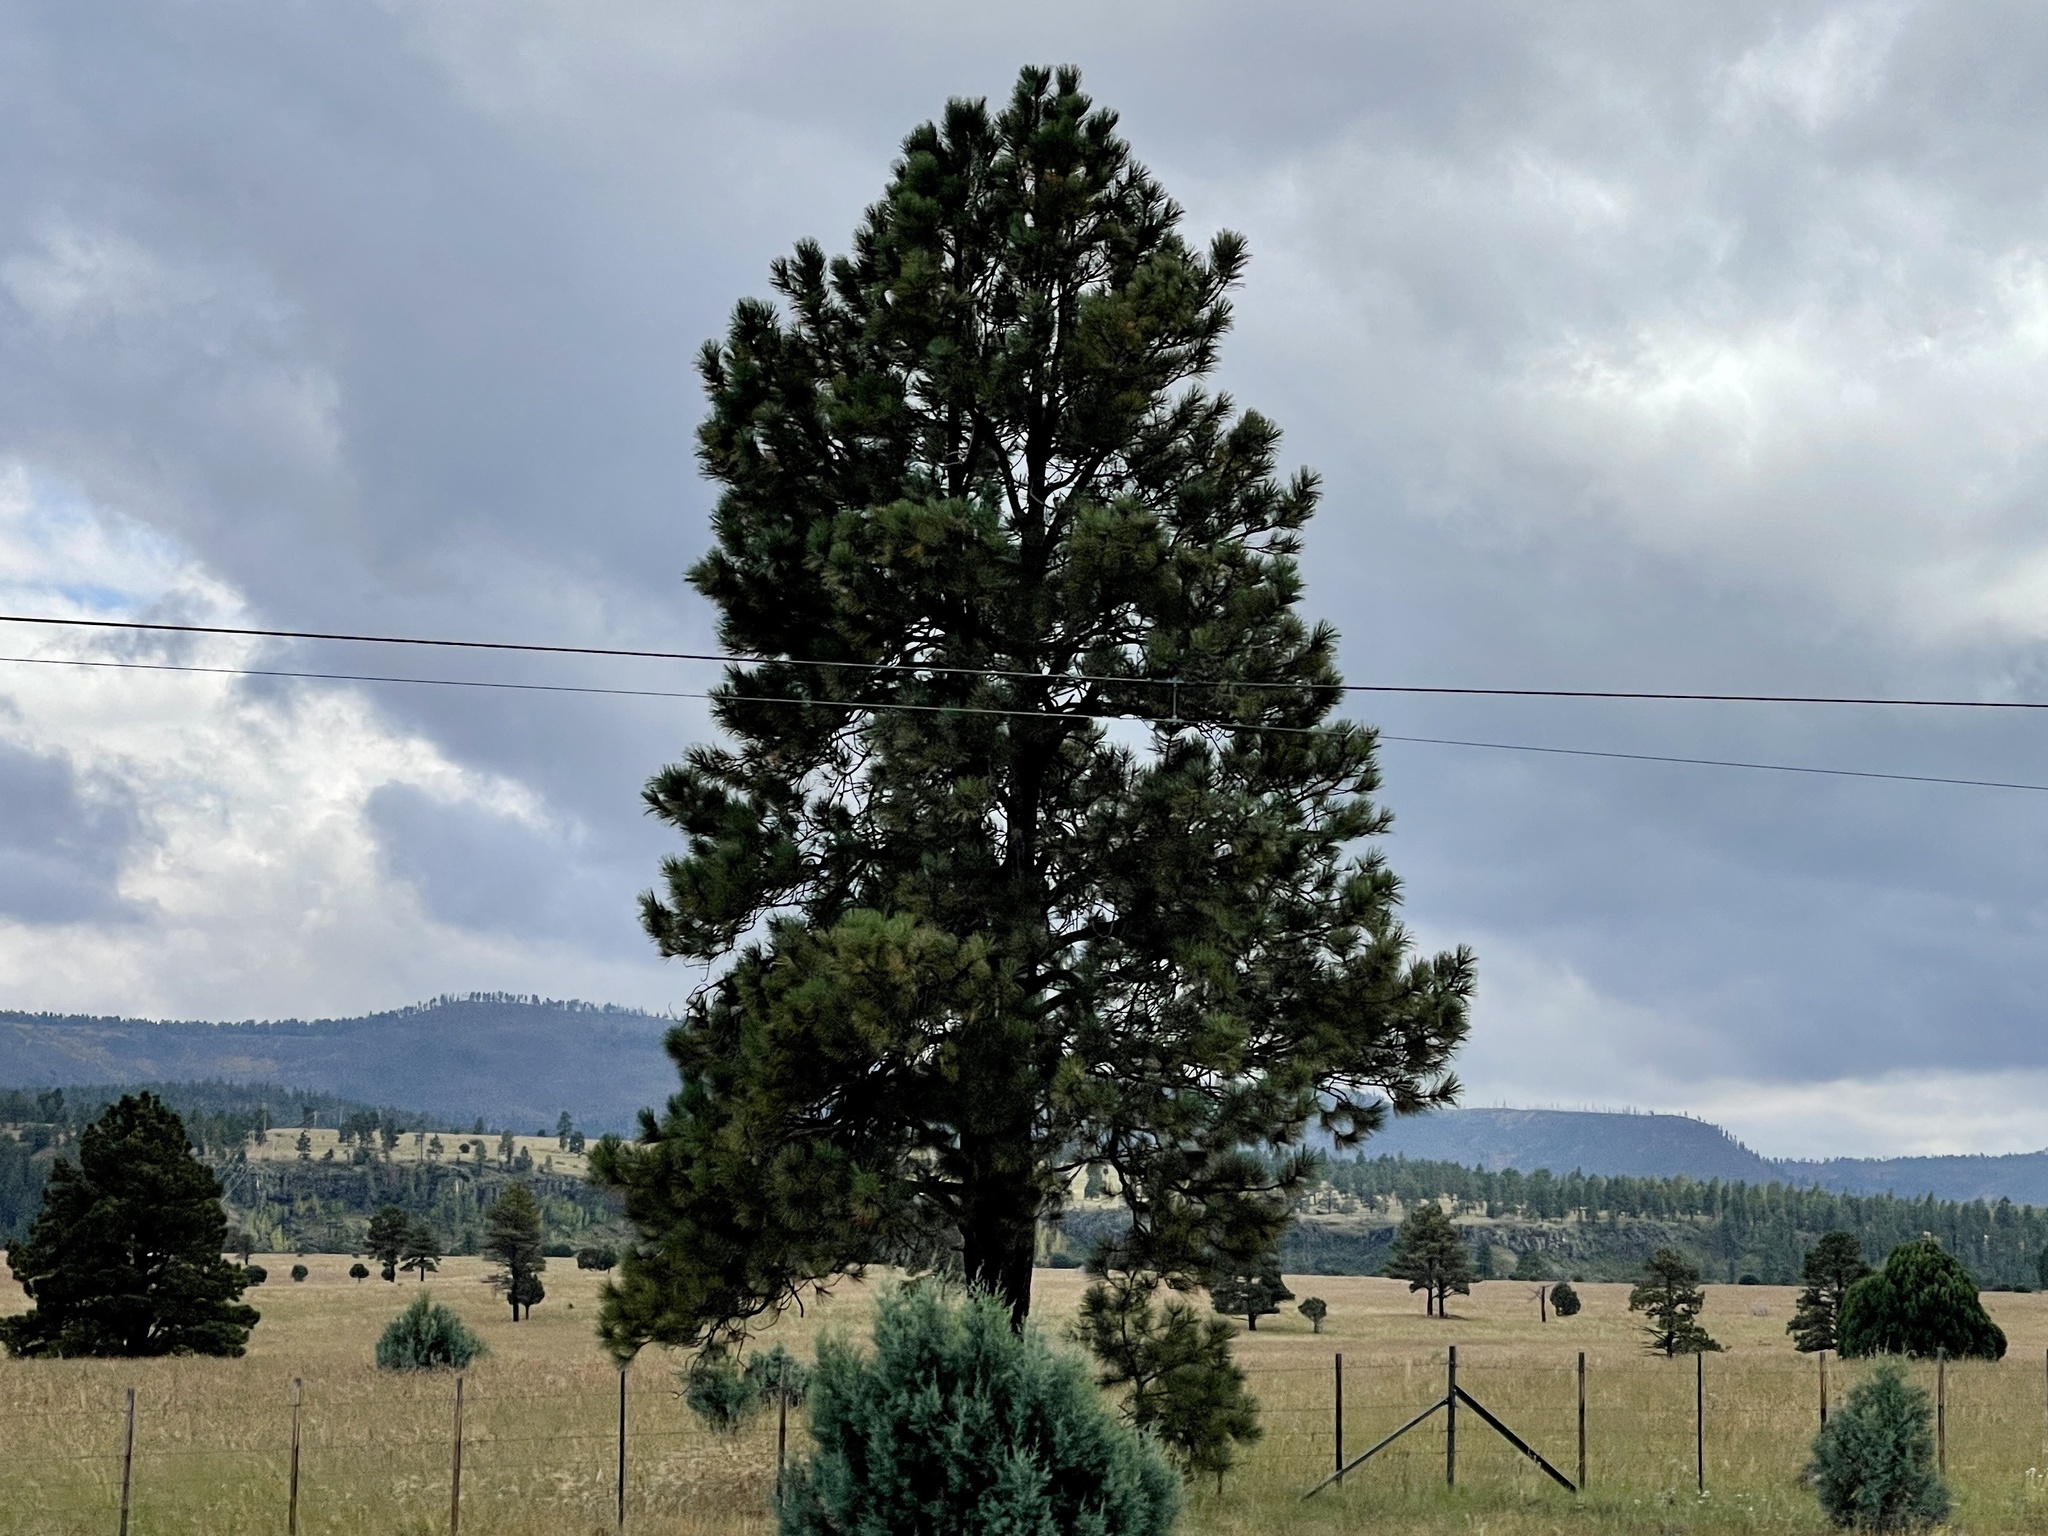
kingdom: Plantae
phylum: Tracheophyta
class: Pinopsida
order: Pinales
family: Pinaceae
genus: Pinus
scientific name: Pinus ponderosa
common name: Western yellow-pine
